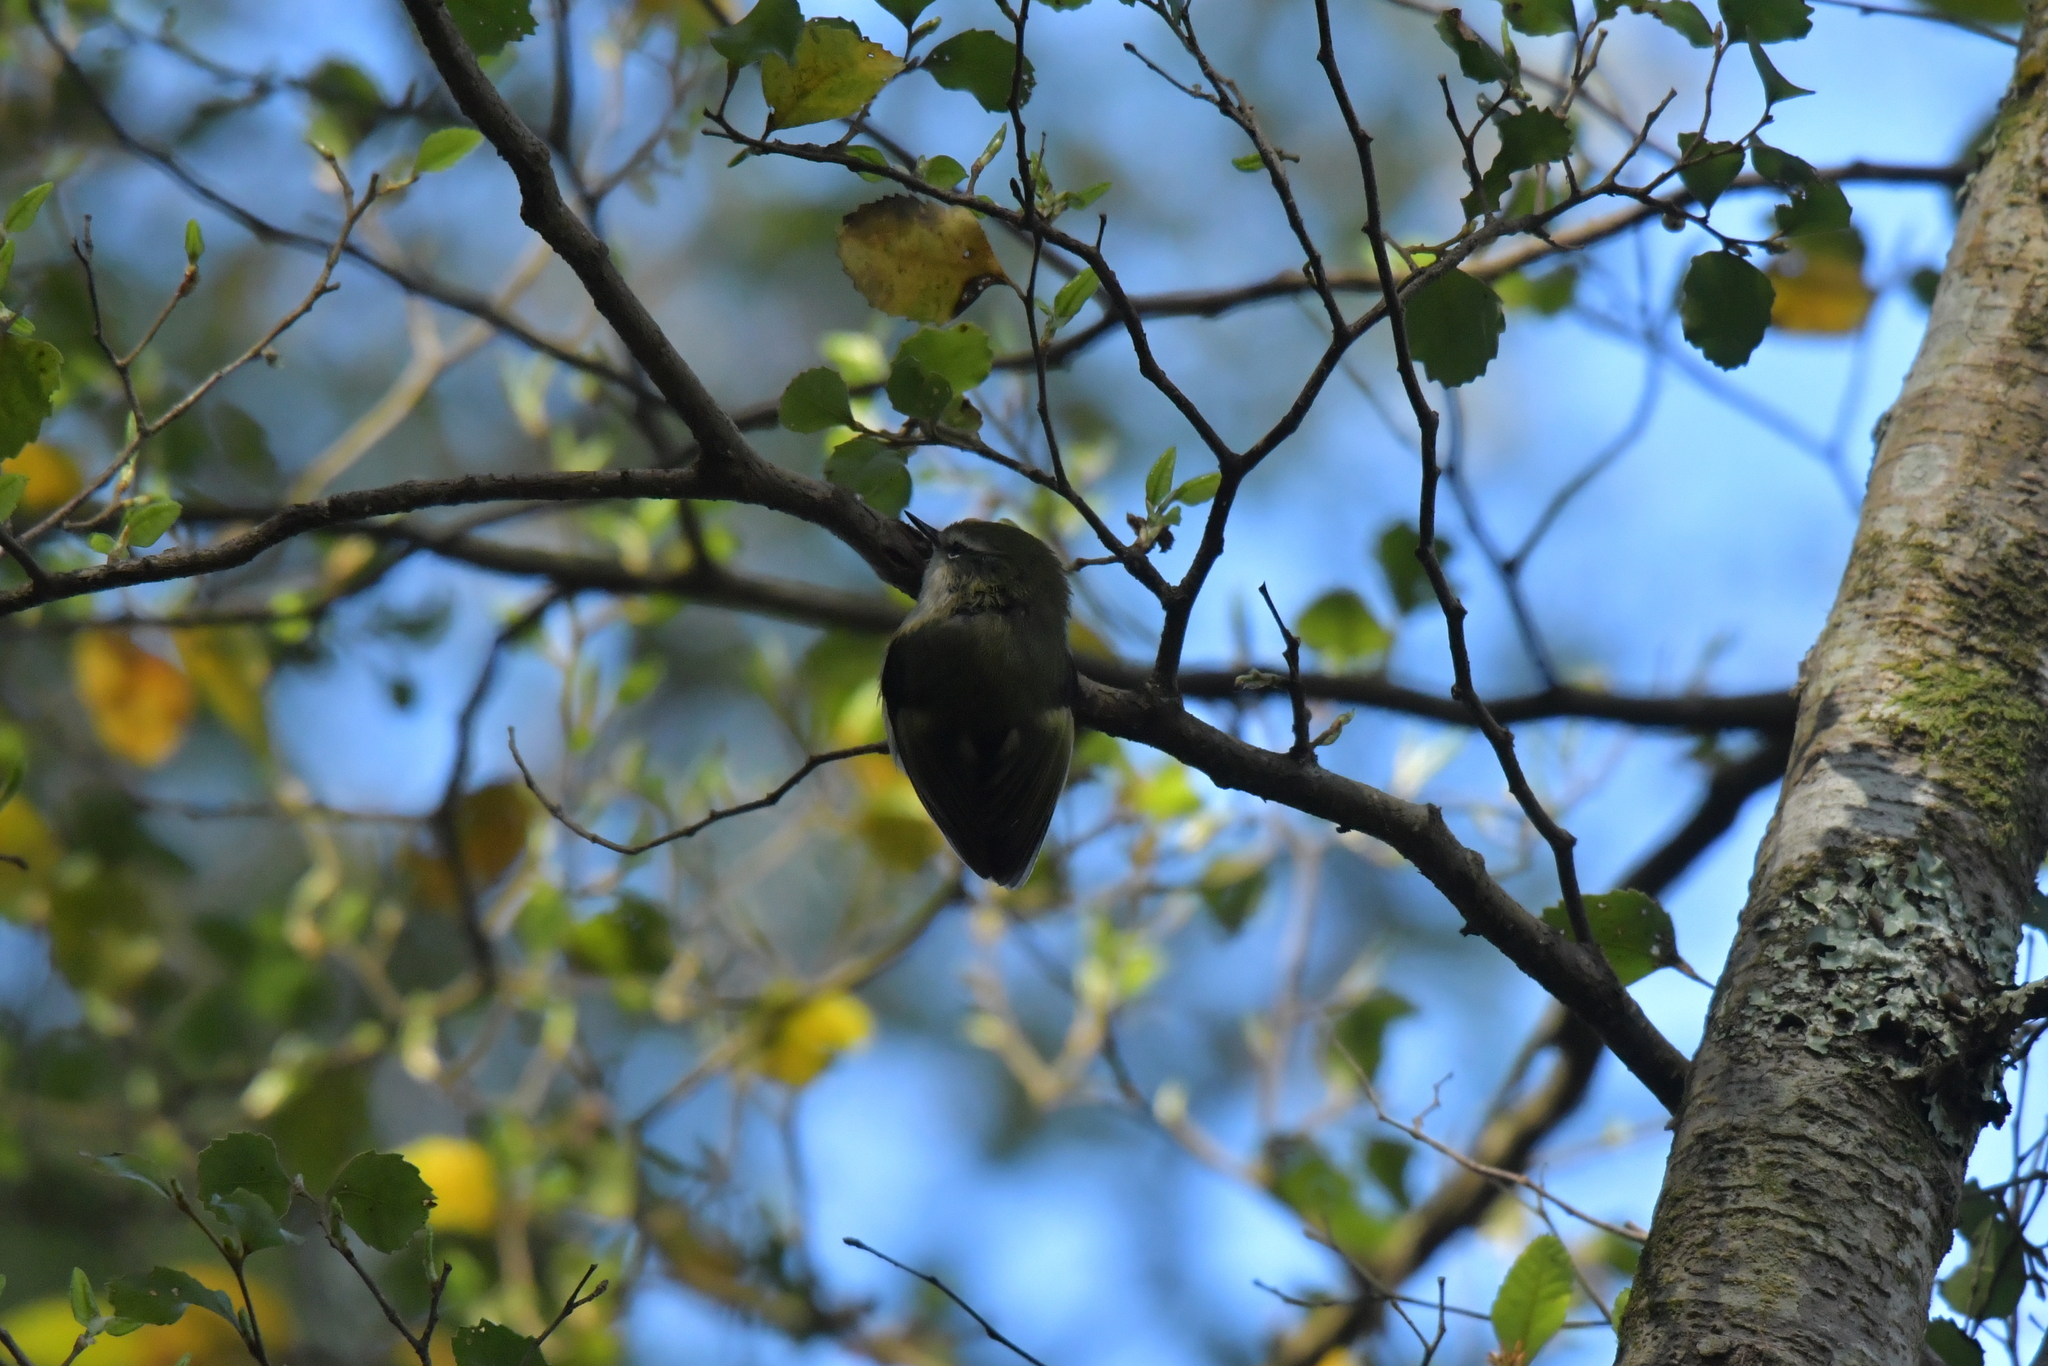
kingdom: Animalia
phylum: Chordata
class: Aves
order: Passeriformes
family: Acanthisittidae
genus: Acanthisitta
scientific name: Acanthisitta chloris
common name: Rifleman
